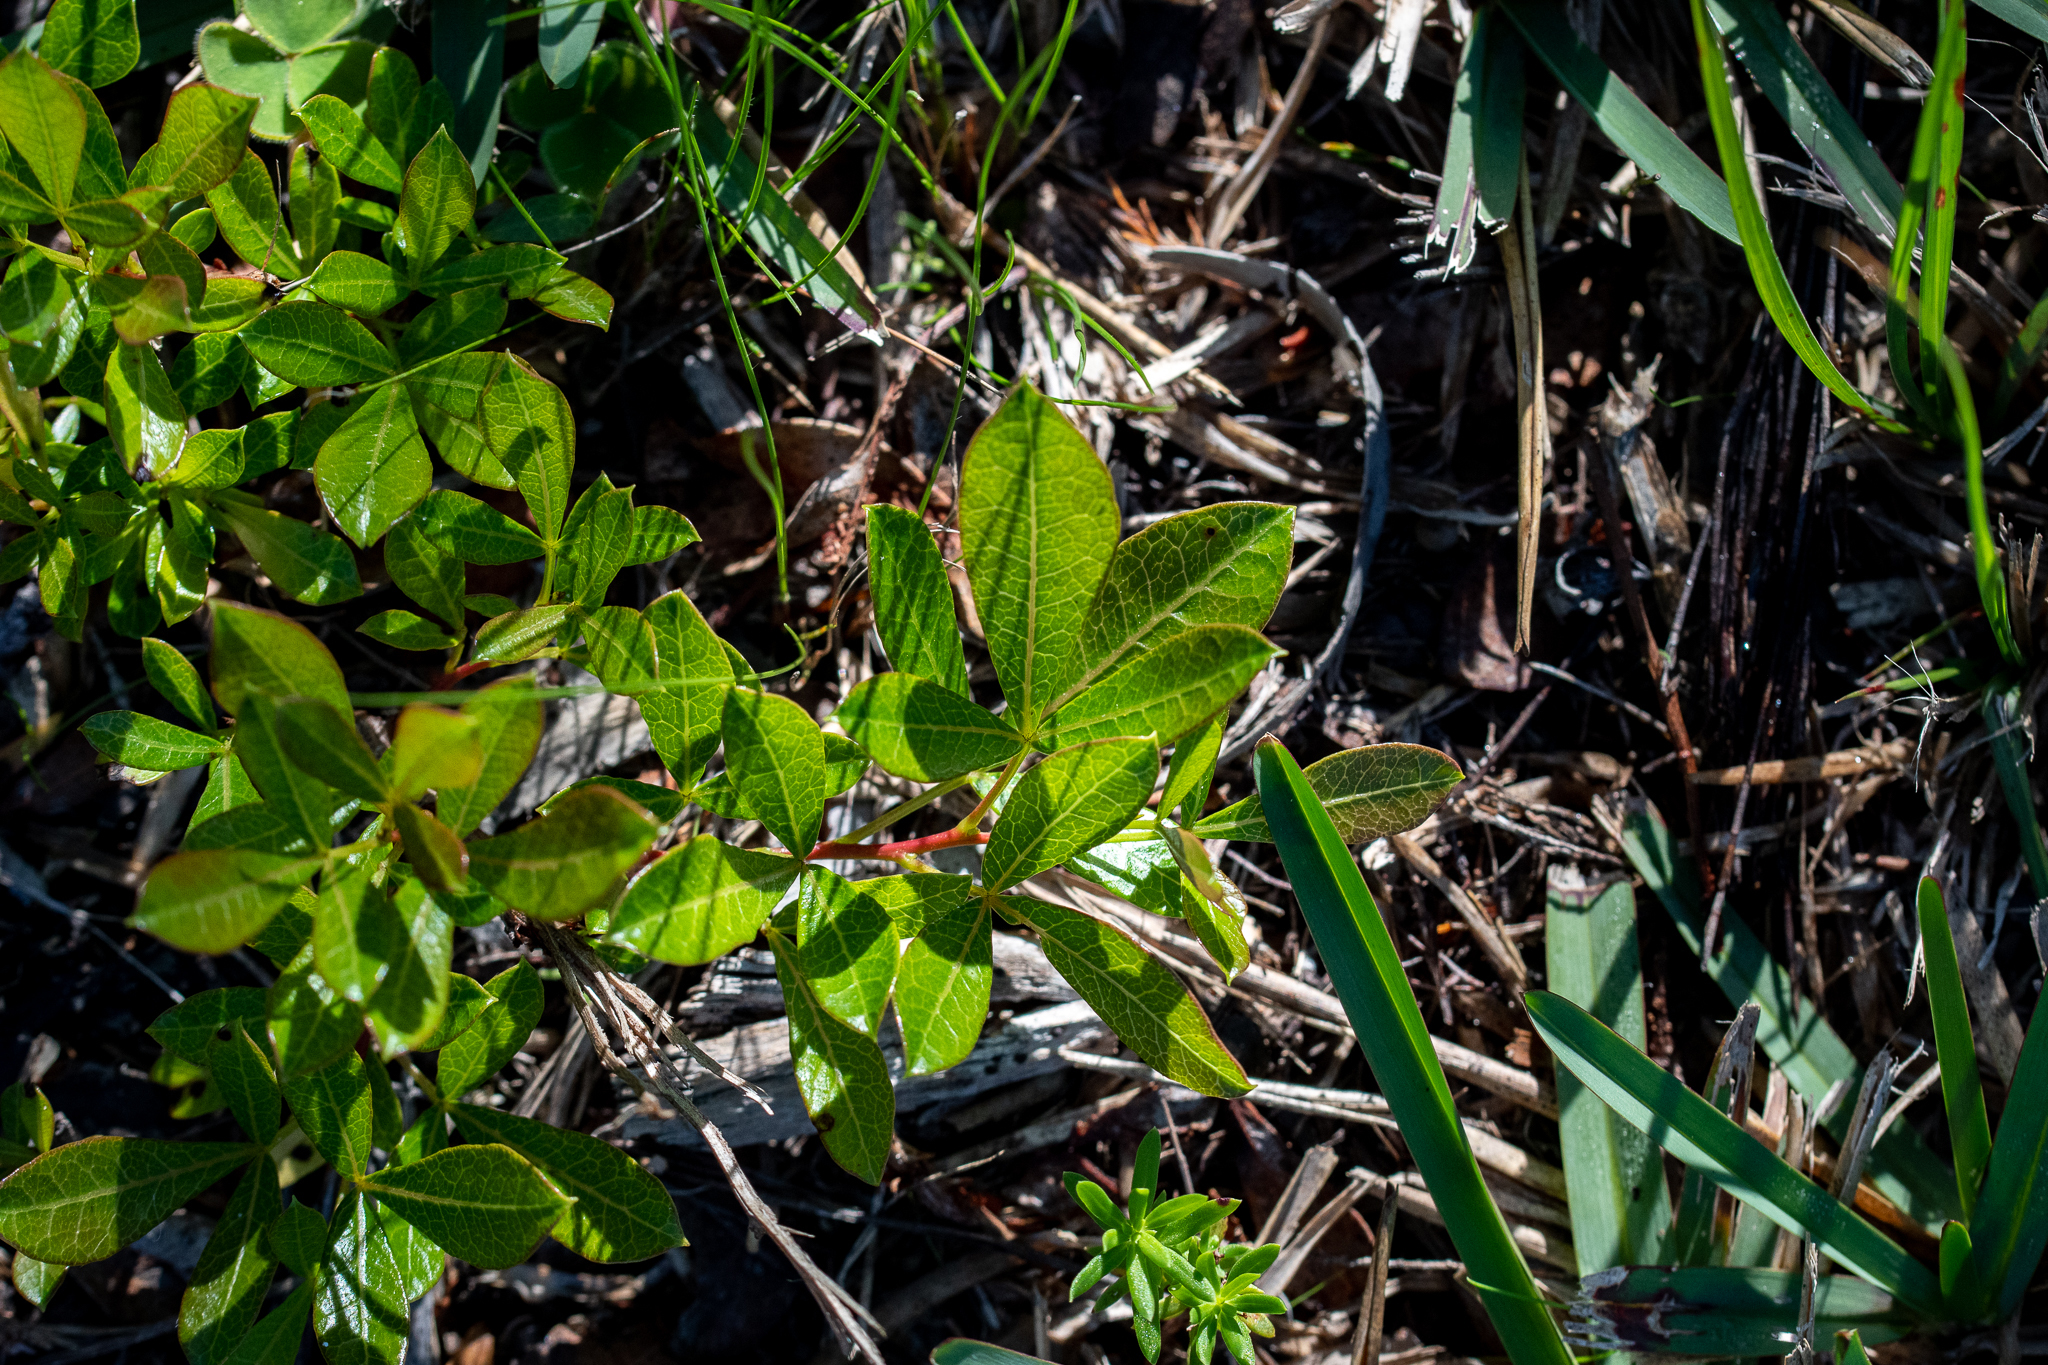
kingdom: Plantae
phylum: Tracheophyta
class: Magnoliopsida
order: Sapindales
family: Anacardiaceae
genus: Searsia
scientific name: Searsia laevigata
